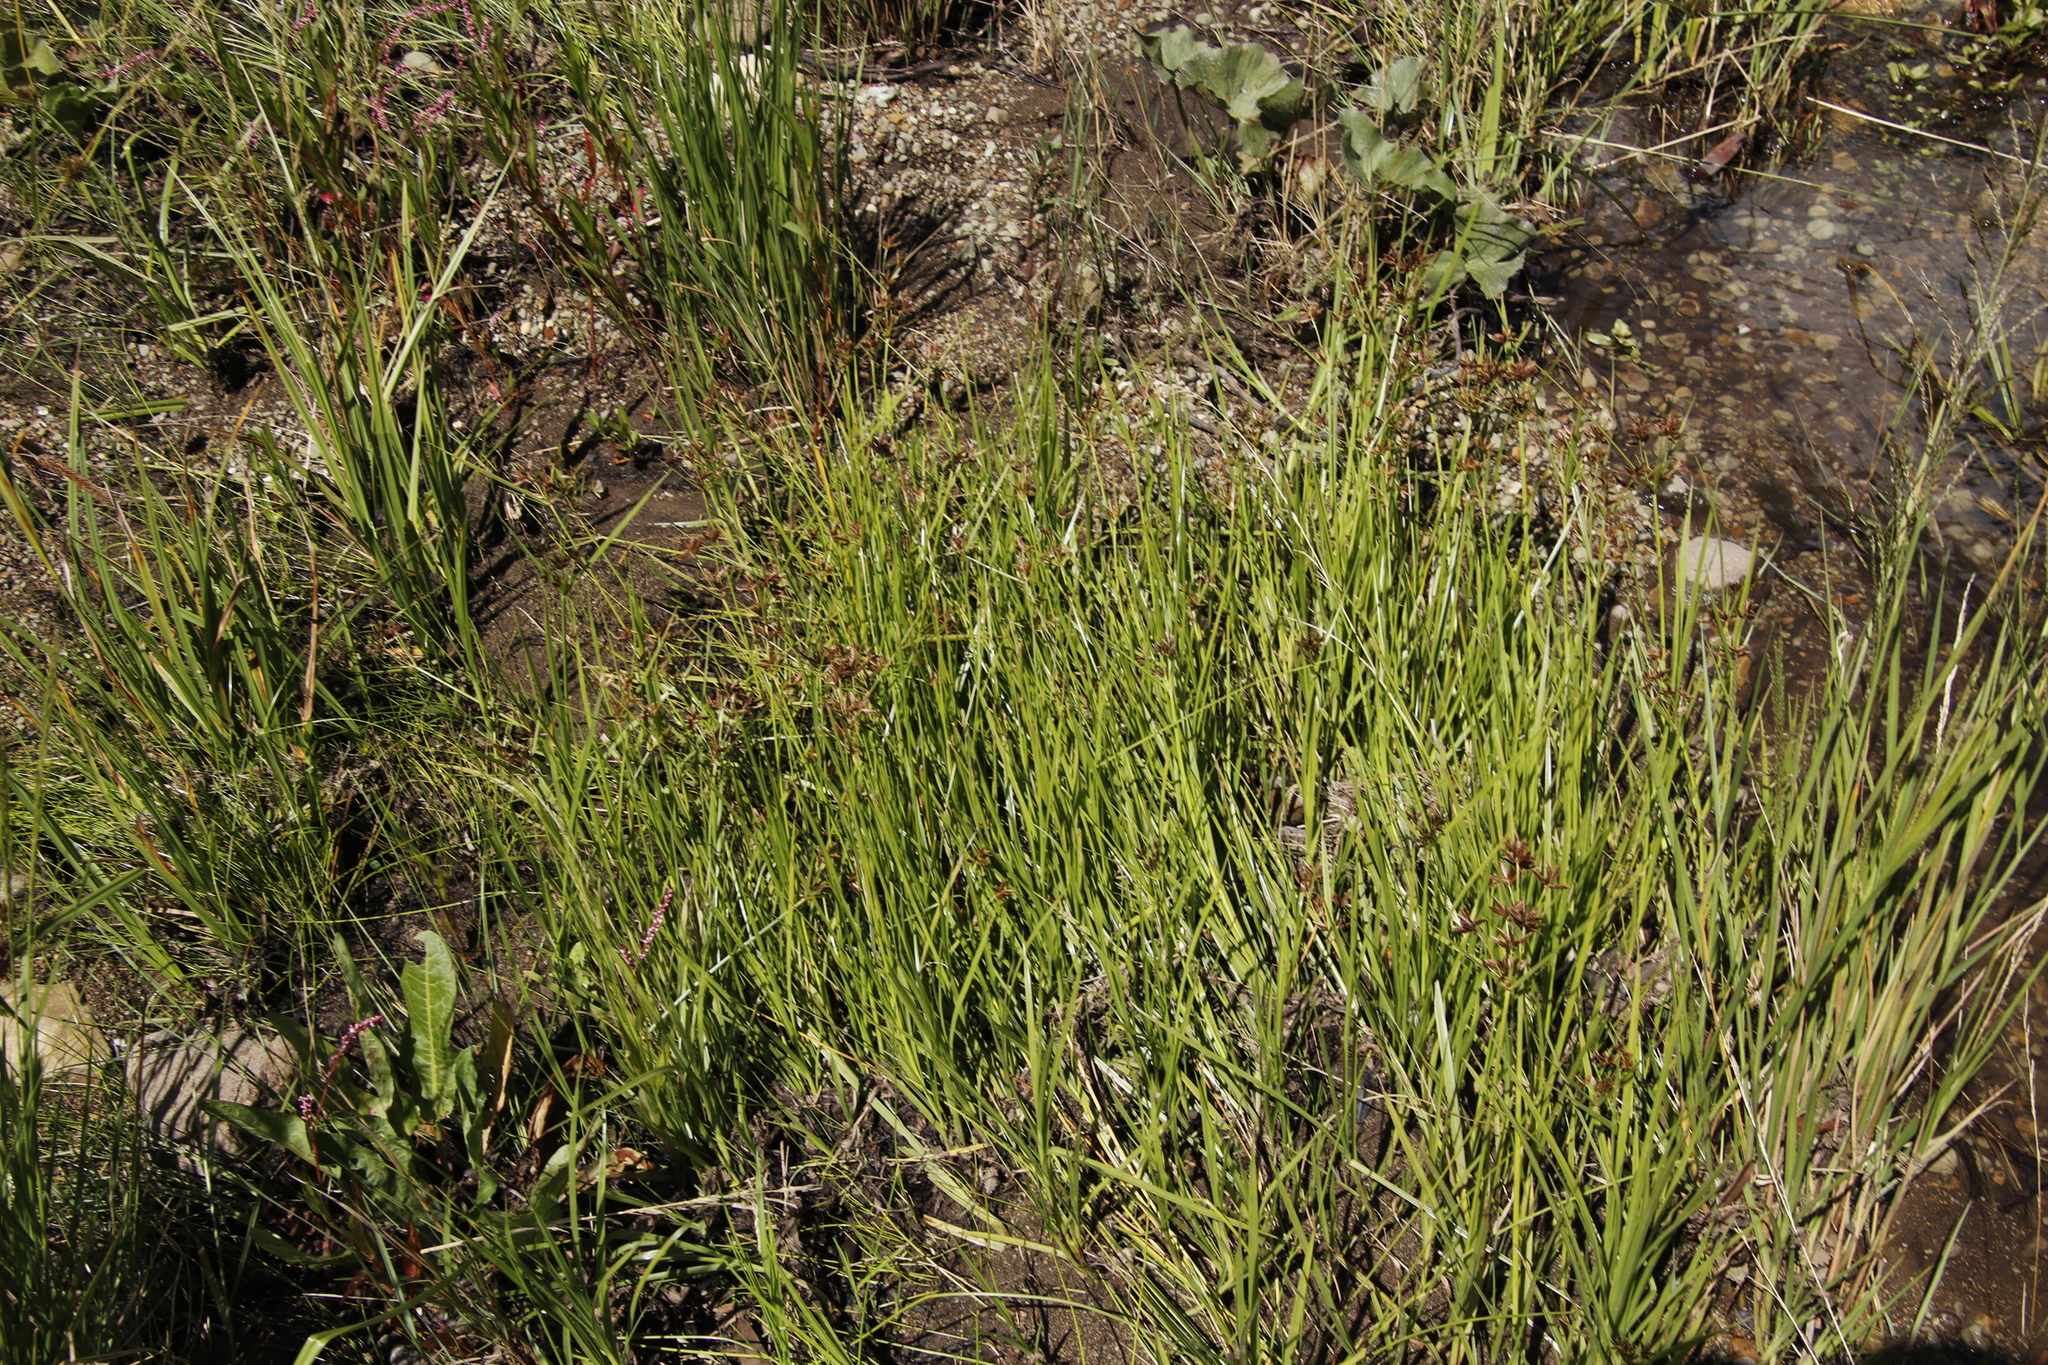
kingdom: Plantae
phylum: Tracheophyta
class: Liliopsida
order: Poales
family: Cyperaceae
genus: Cyperus
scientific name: Cyperus mundii
